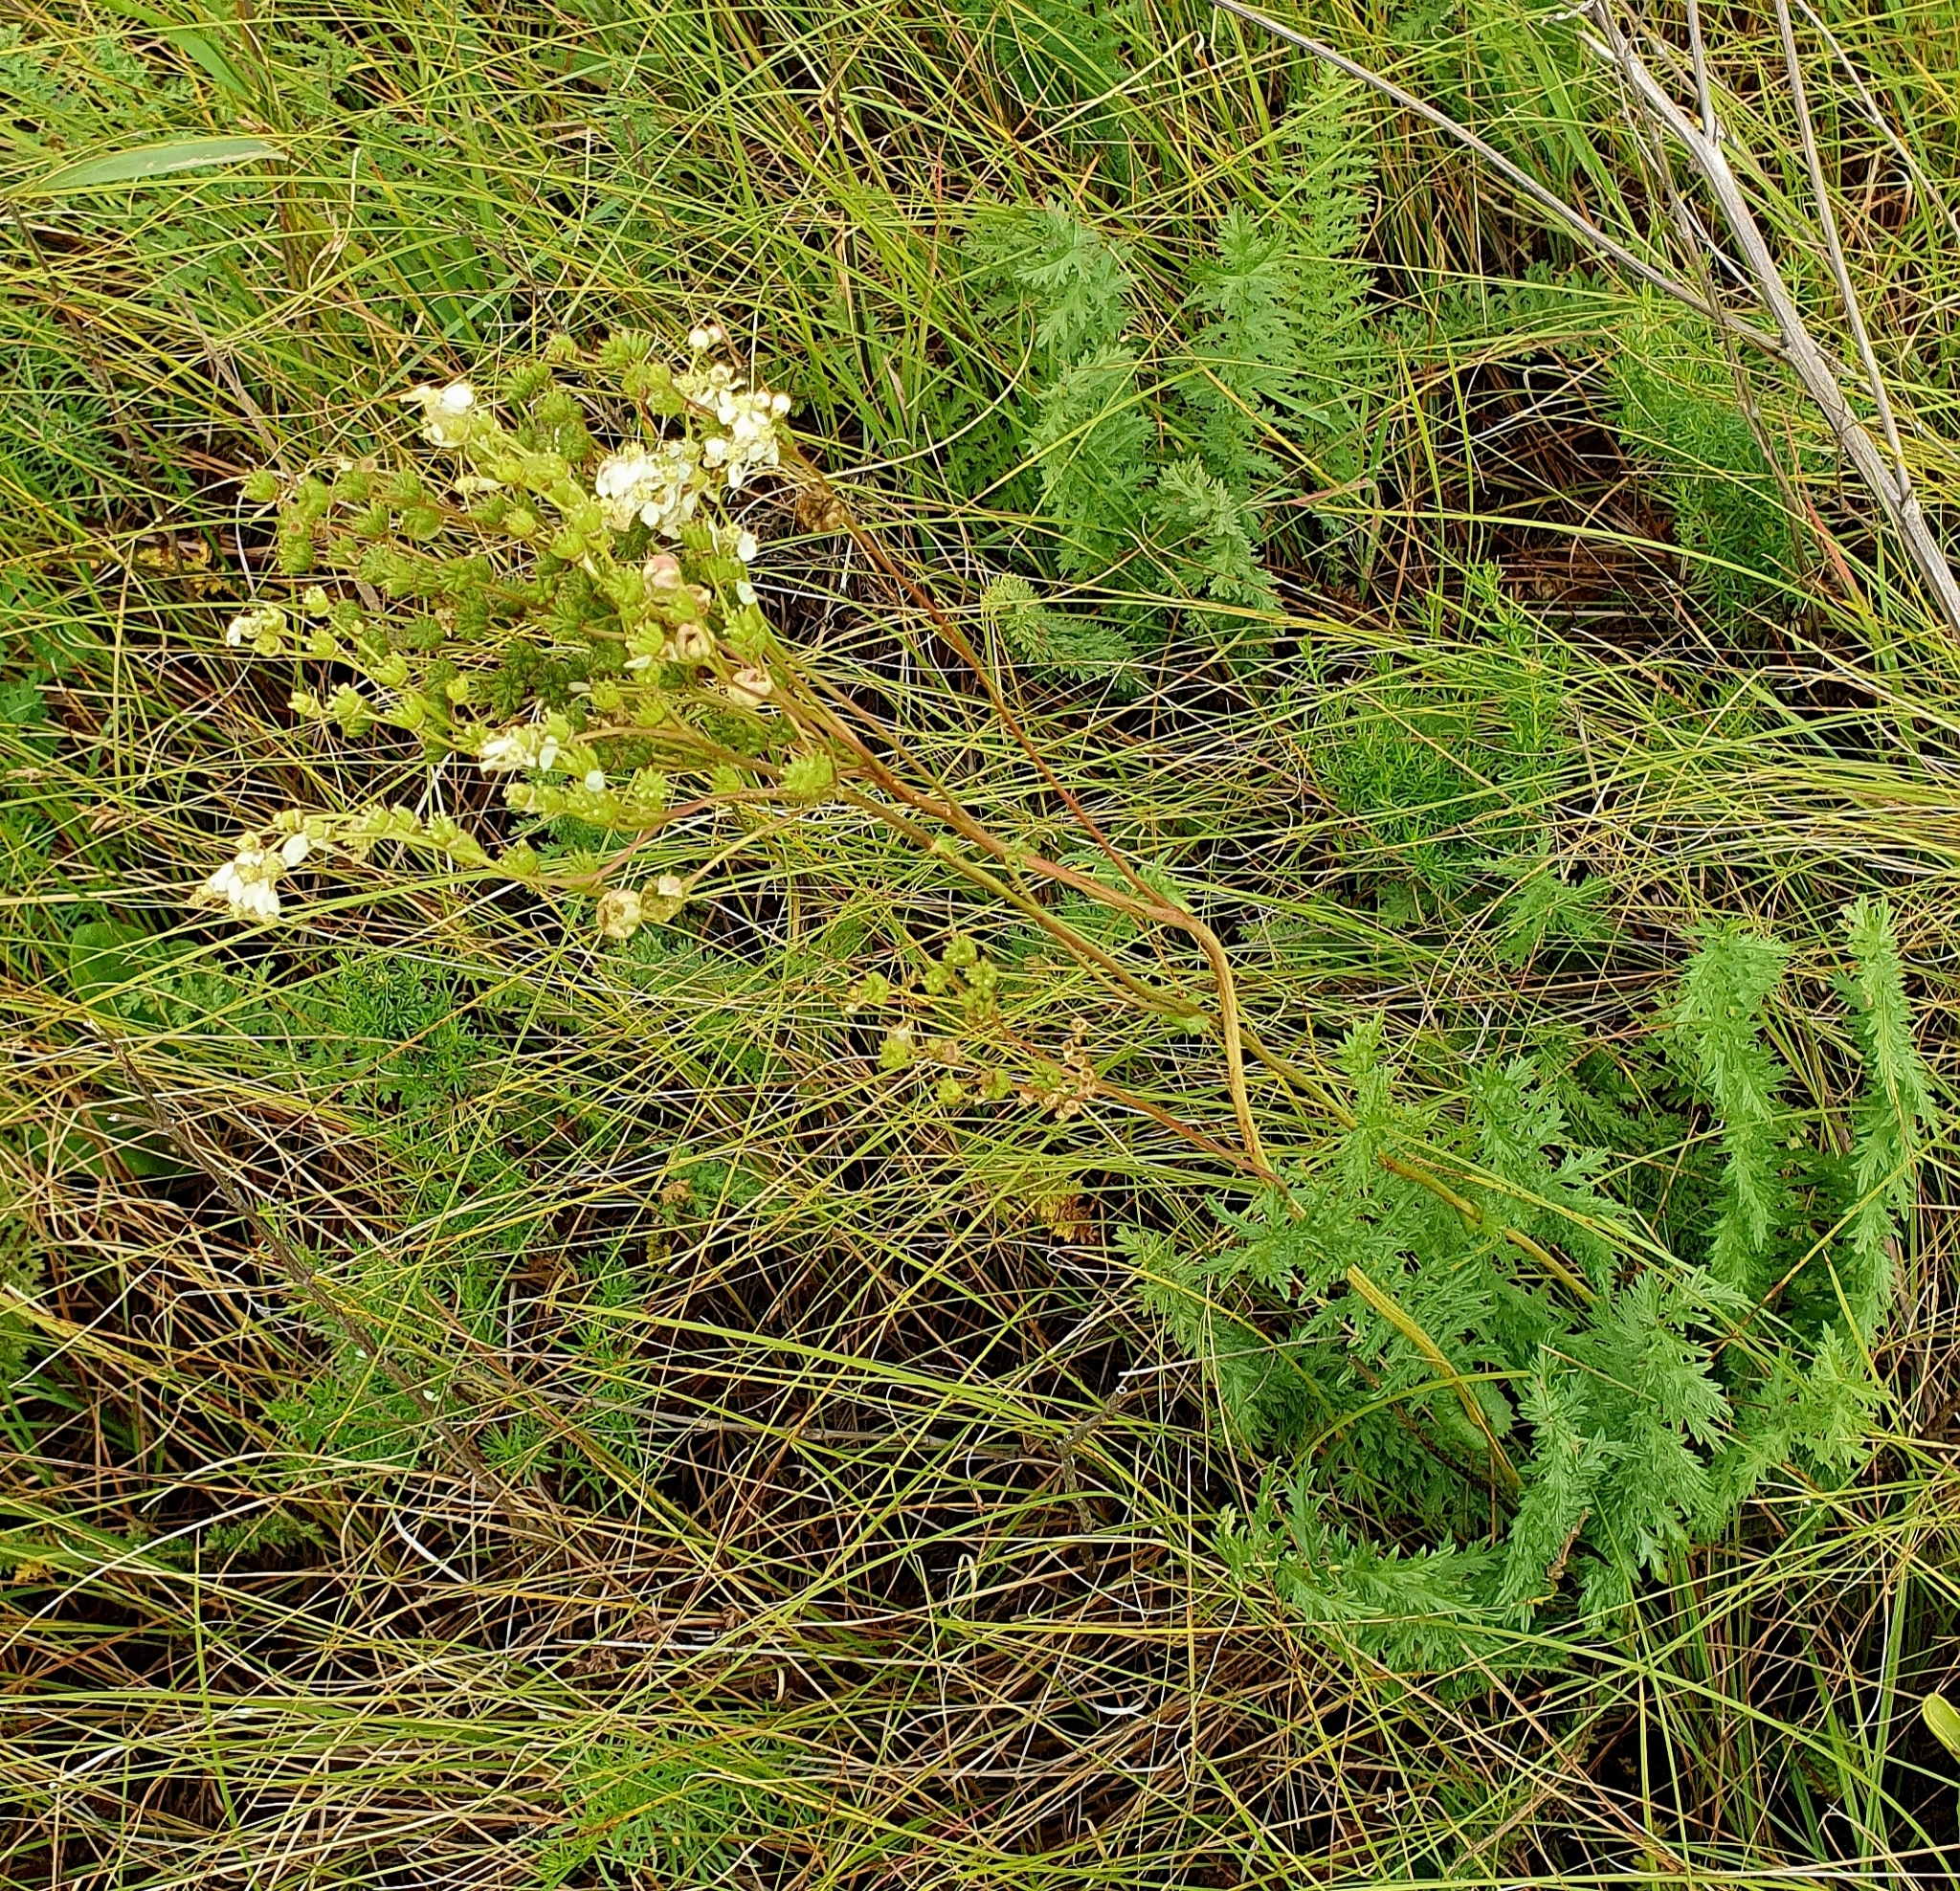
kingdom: Plantae
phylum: Tracheophyta
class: Magnoliopsida
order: Rosales
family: Rosaceae
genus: Filipendula
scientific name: Filipendula vulgaris
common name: Dropwort
